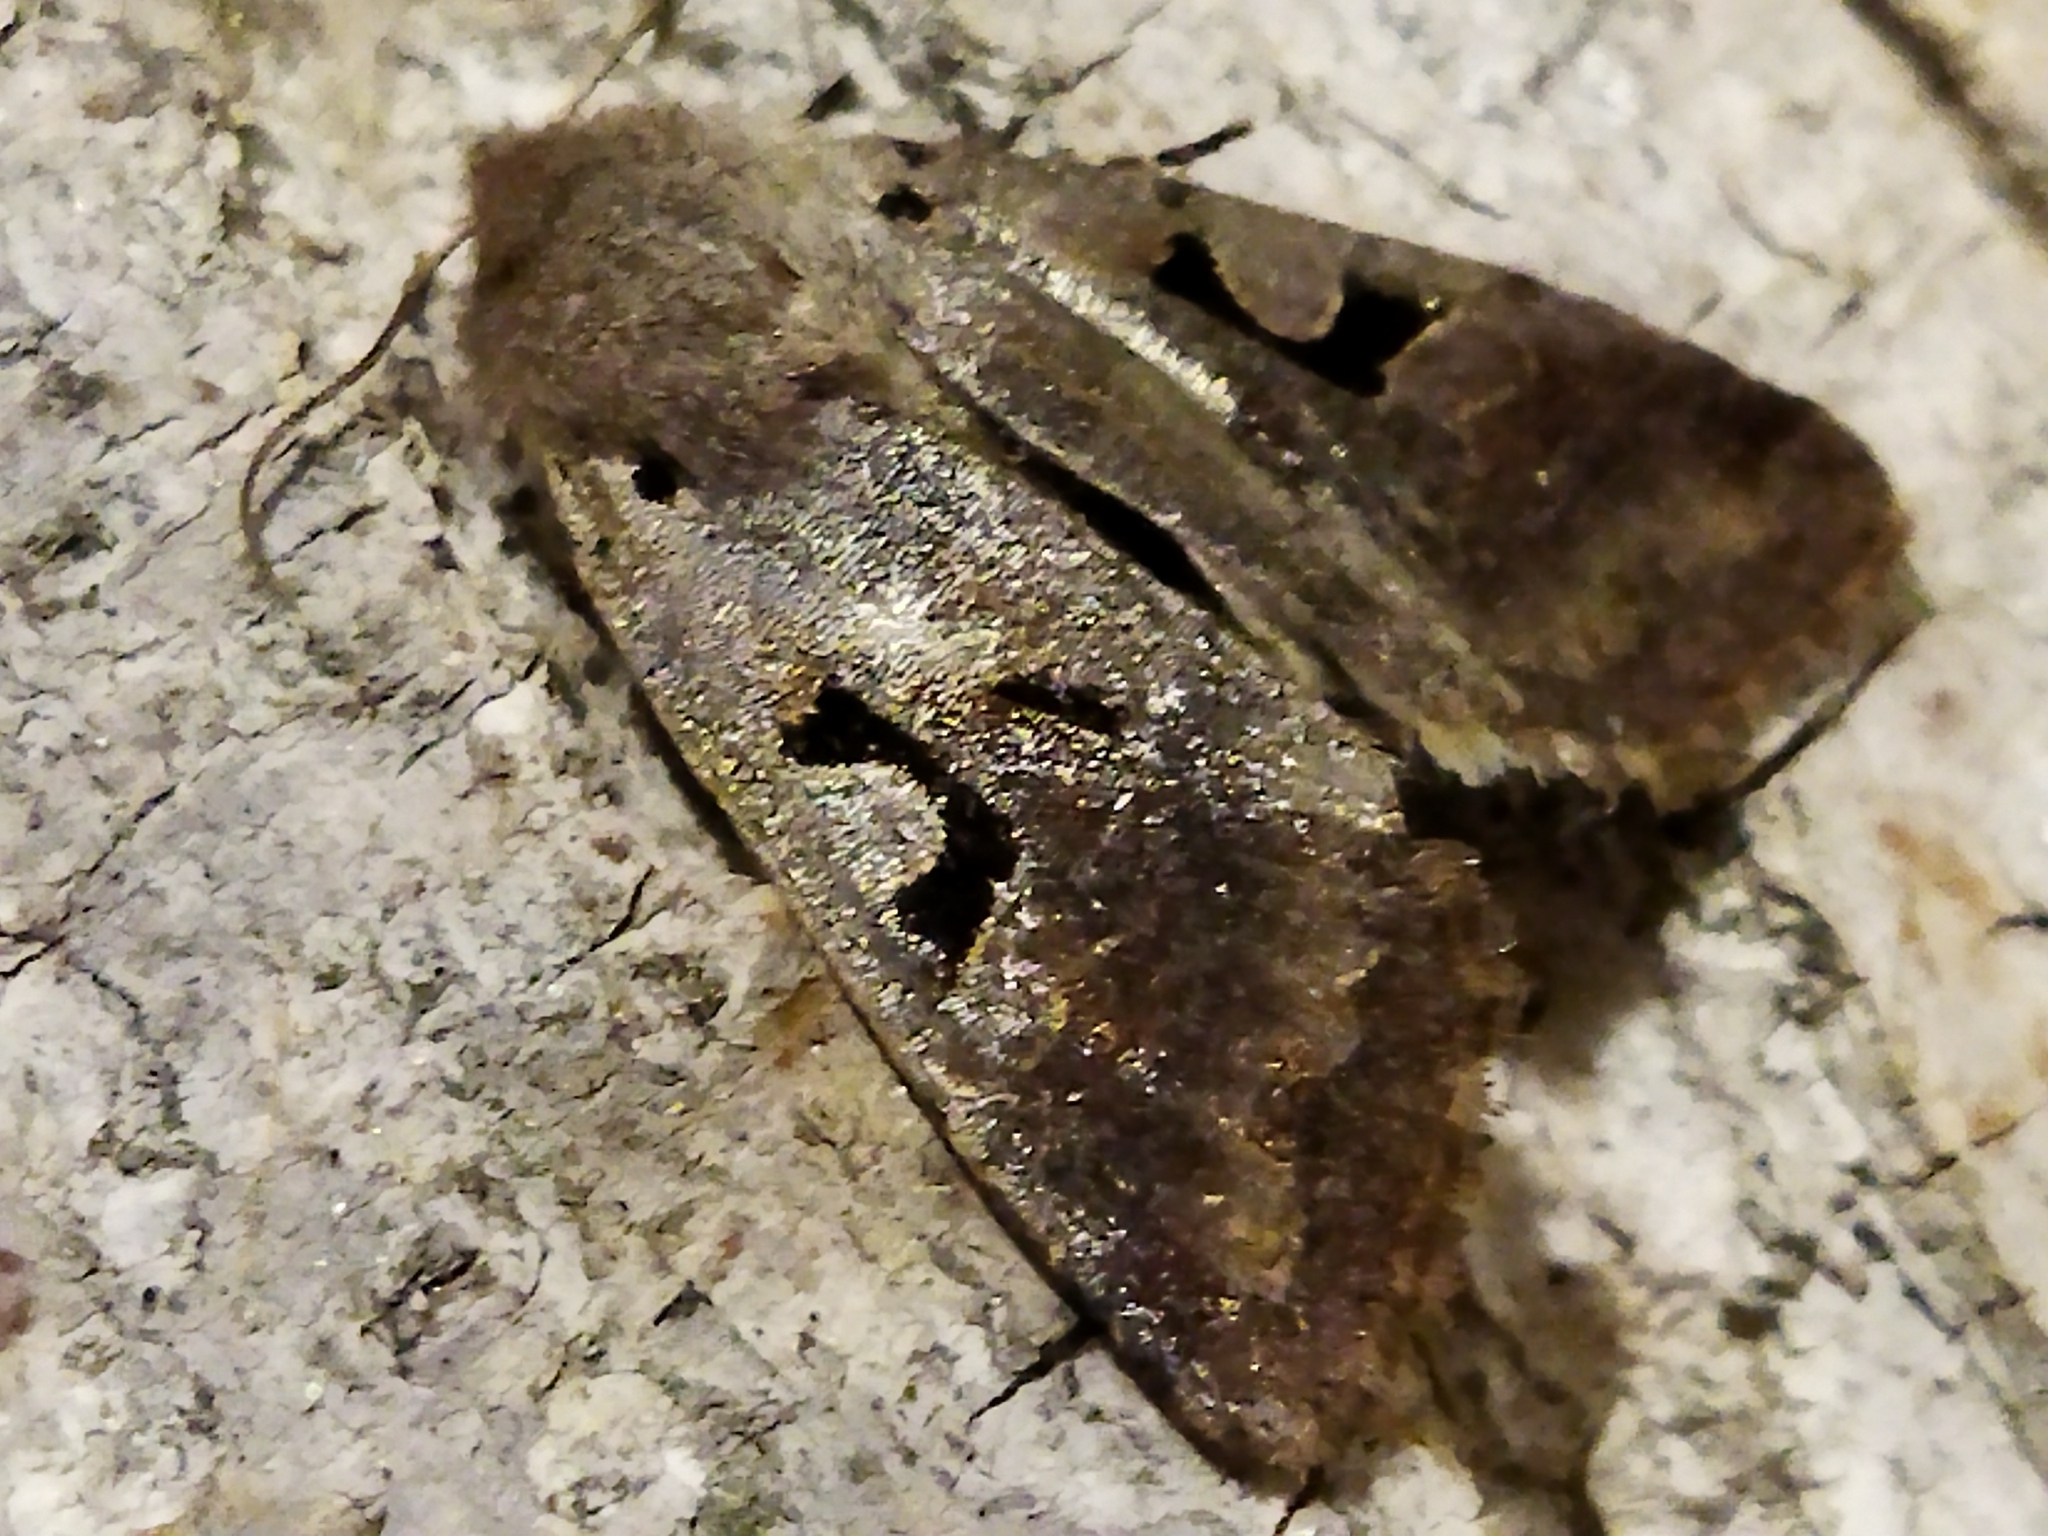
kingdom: Animalia
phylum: Arthropoda
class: Insecta
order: Lepidoptera
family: Noctuidae
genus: Orthosia
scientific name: Orthosia gothica
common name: Hebrew character
